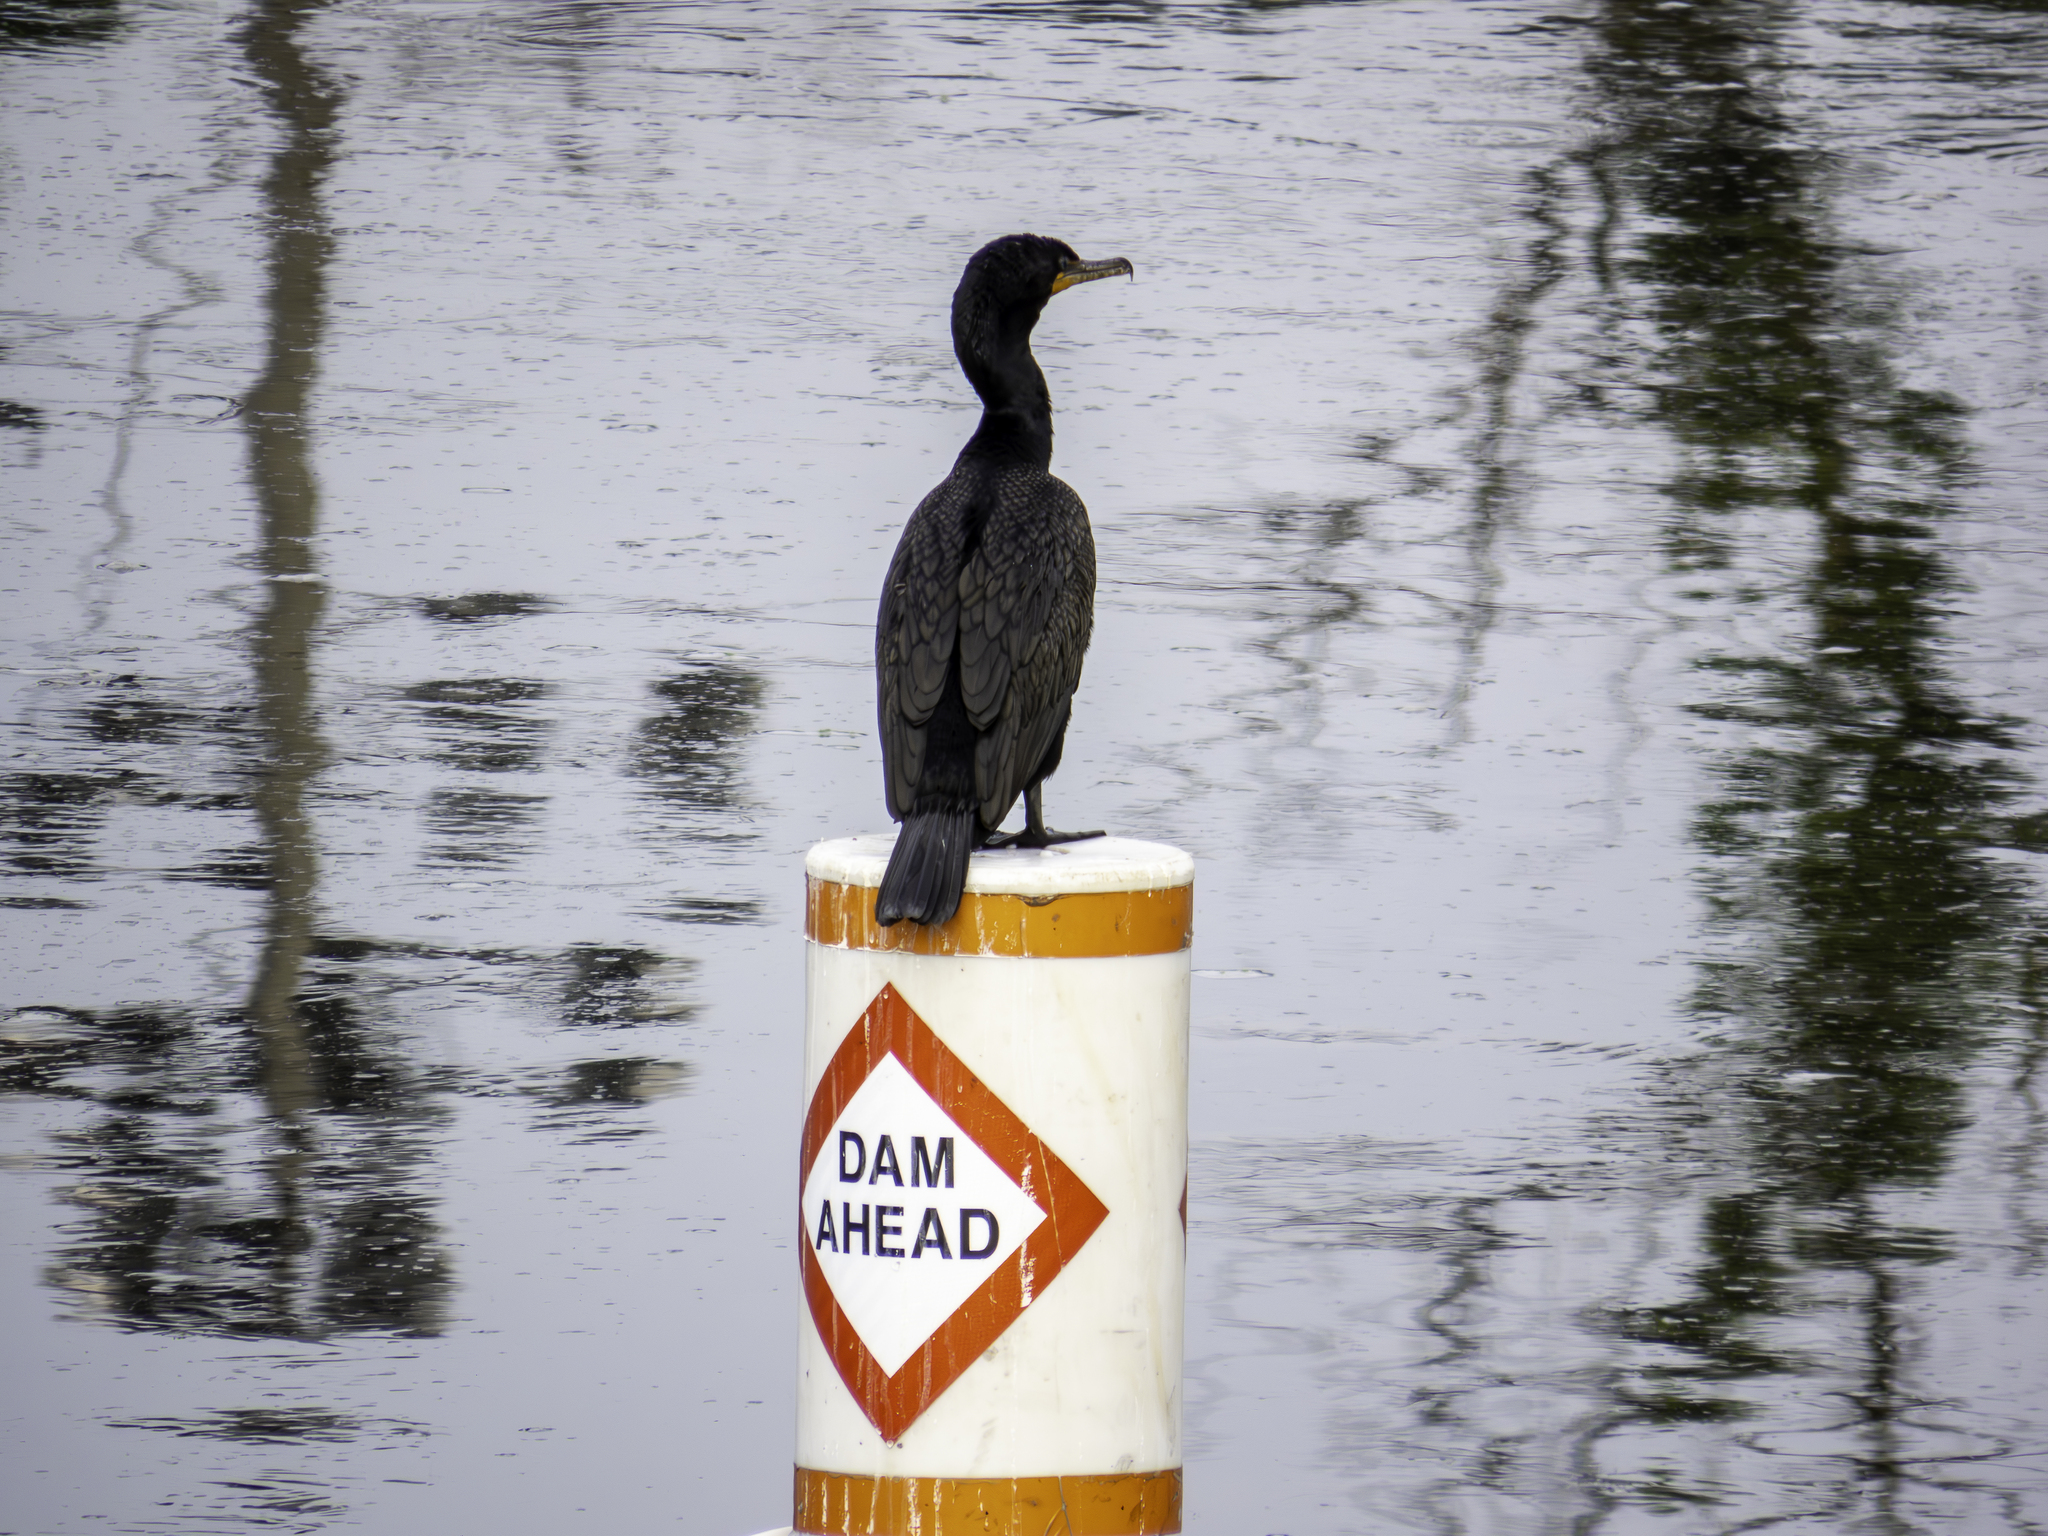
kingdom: Animalia
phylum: Chordata
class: Aves
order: Suliformes
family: Phalacrocoracidae
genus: Phalacrocorax
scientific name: Phalacrocorax auritus
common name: Double-crested cormorant
